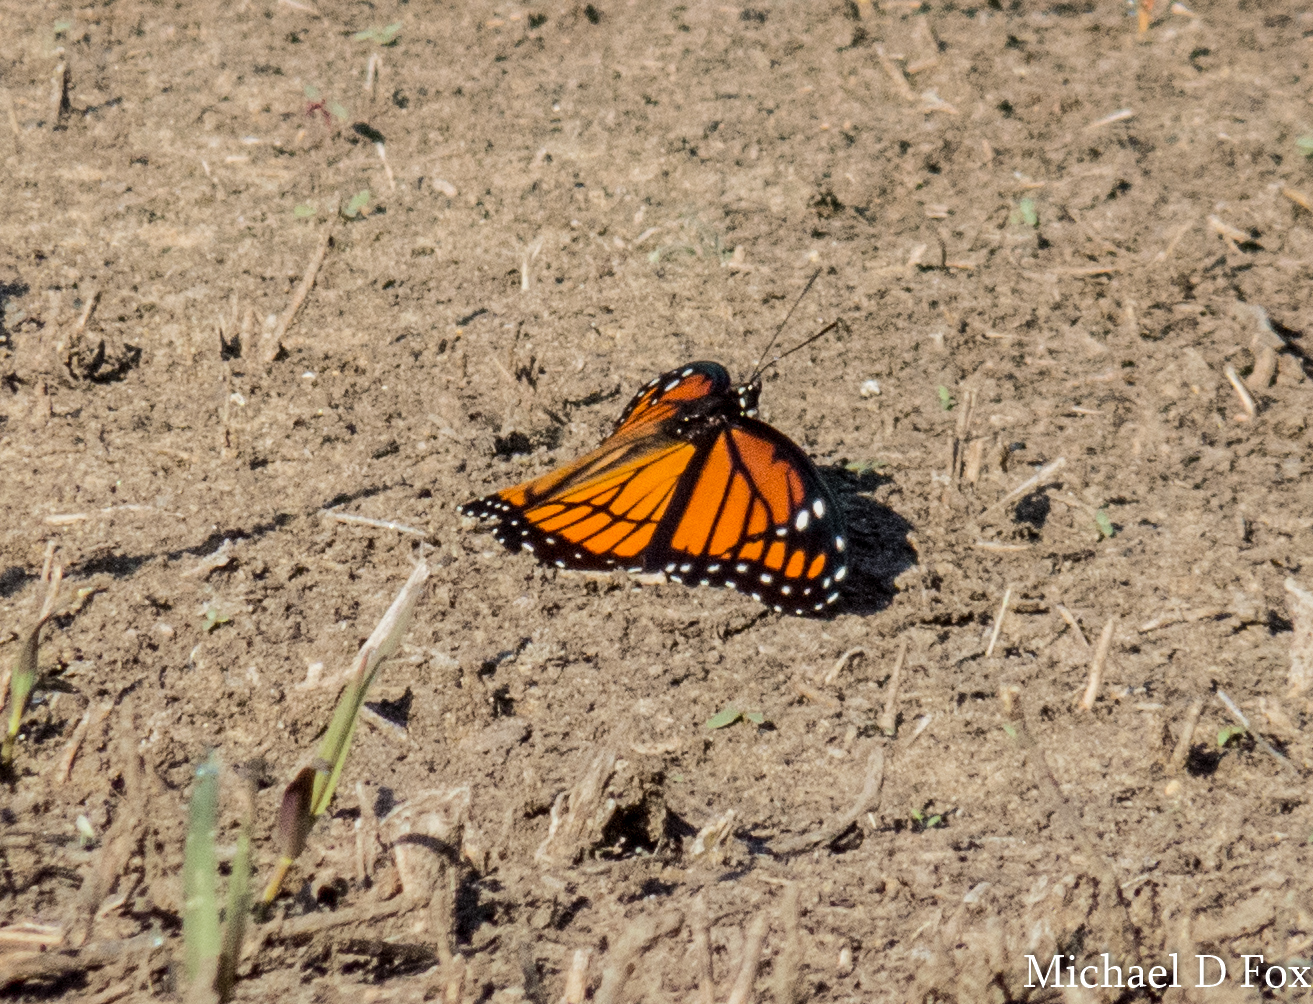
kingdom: Animalia
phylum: Arthropoda
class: Insecta
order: Lepidoptera
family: Nymphalidae
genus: Limenitis
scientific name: Limenitis archippus
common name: Viceroy
